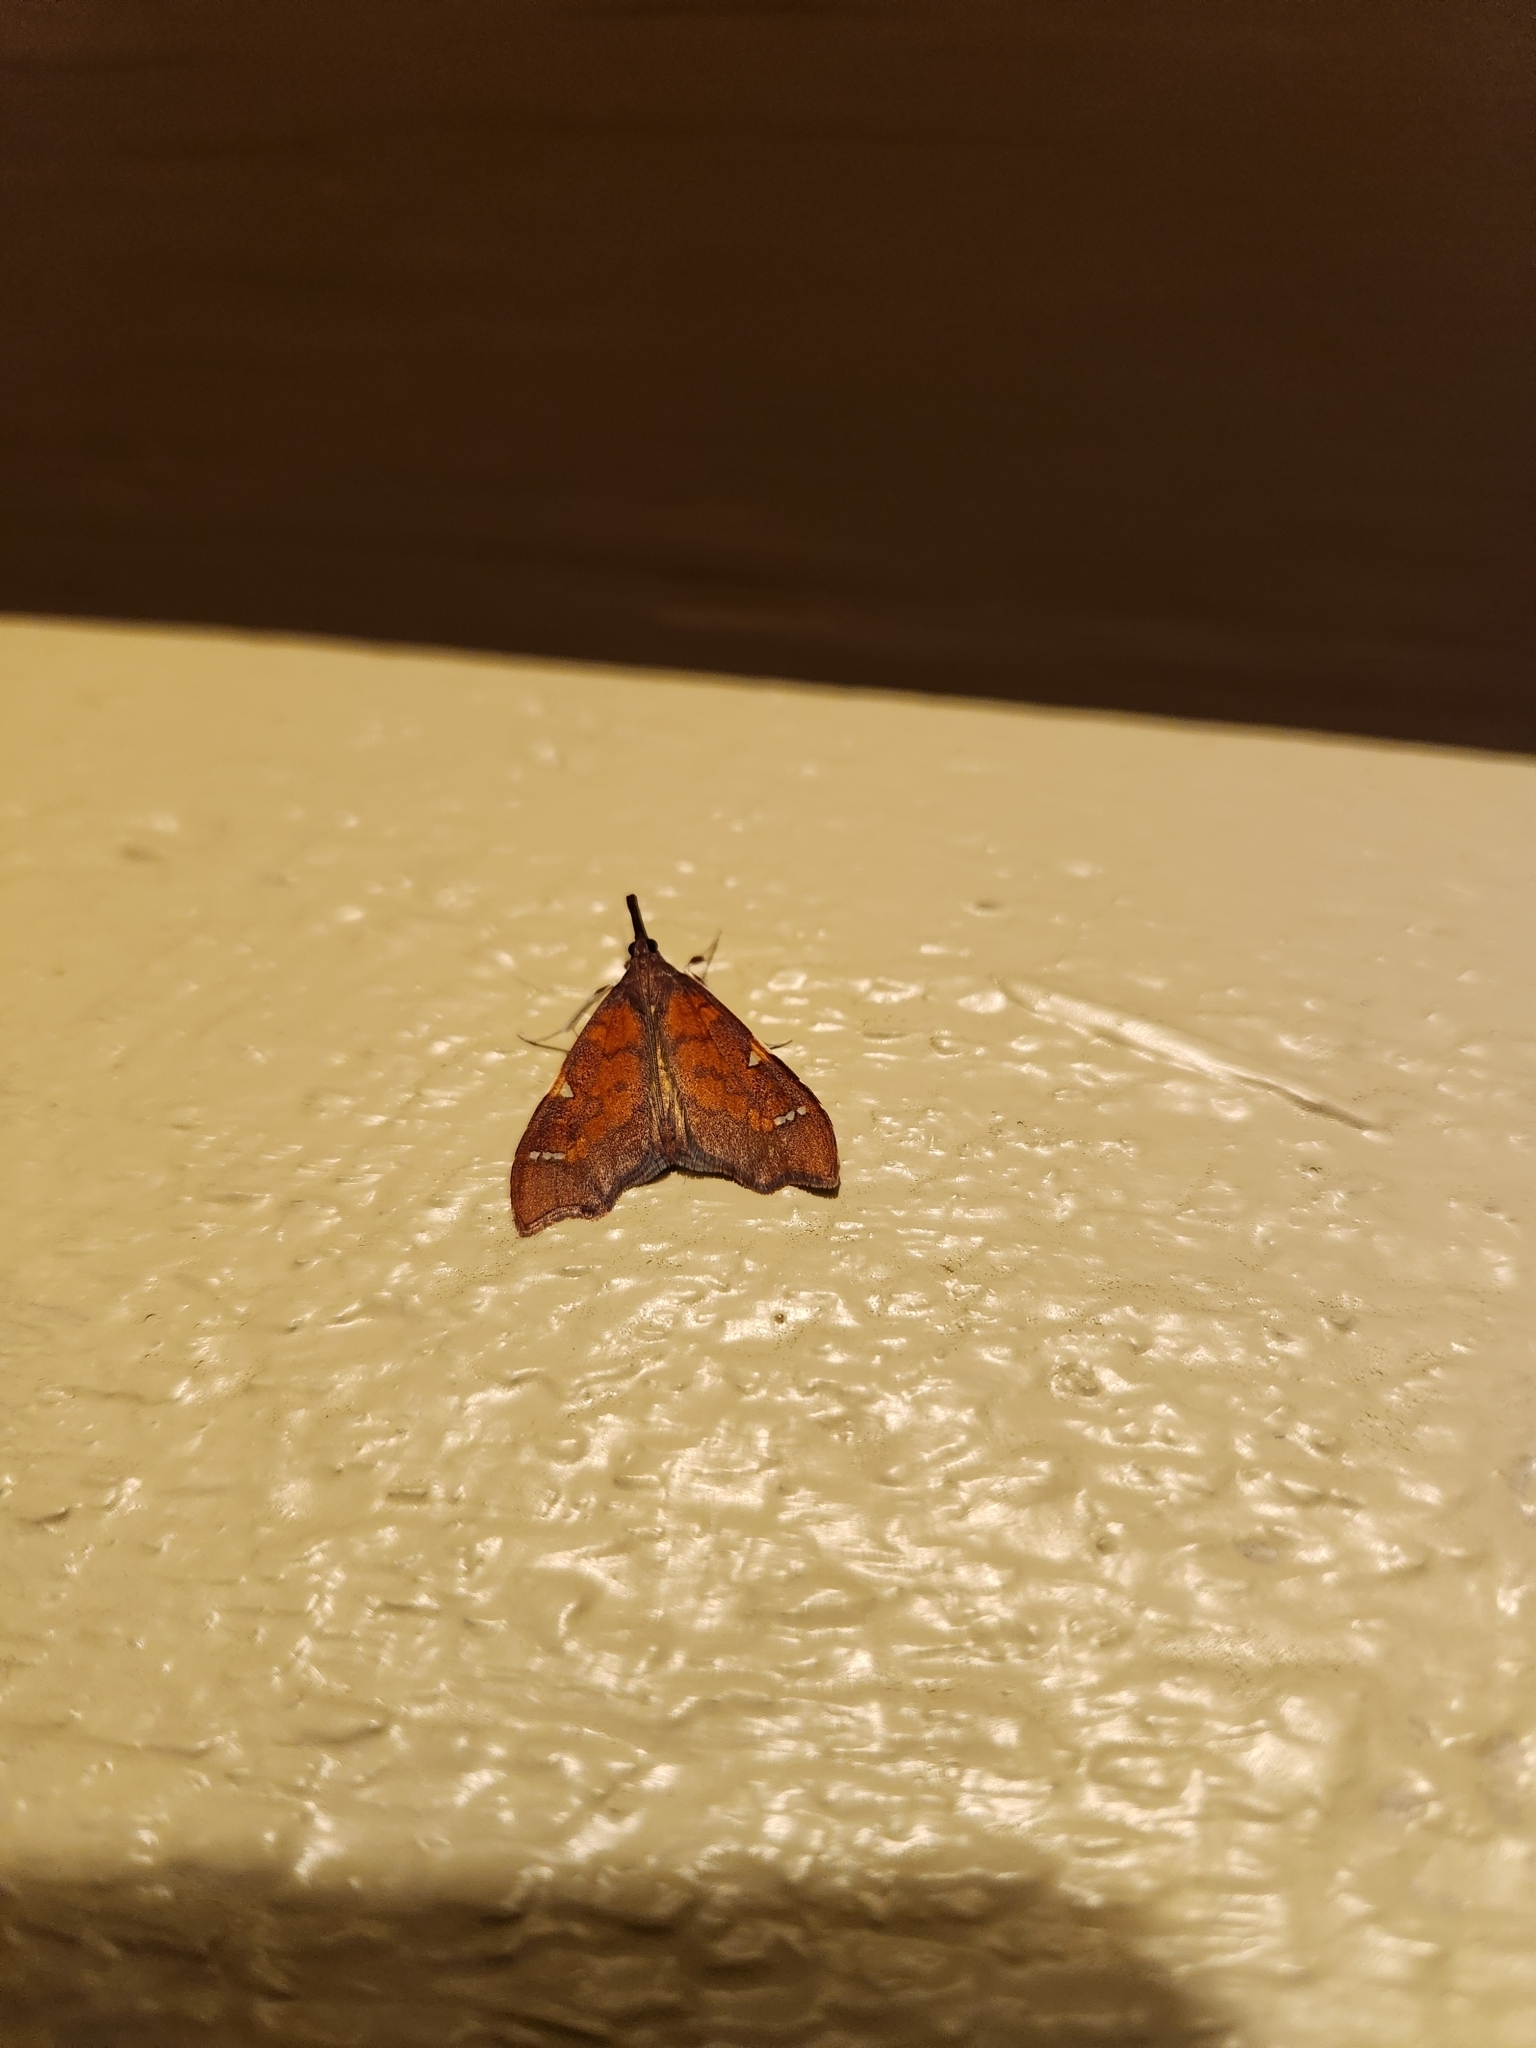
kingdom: Animalia
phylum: Arthropoda
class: Insecta
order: Lepidoptera
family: Crambidae
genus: Deana
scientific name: Deana hybreasalis
